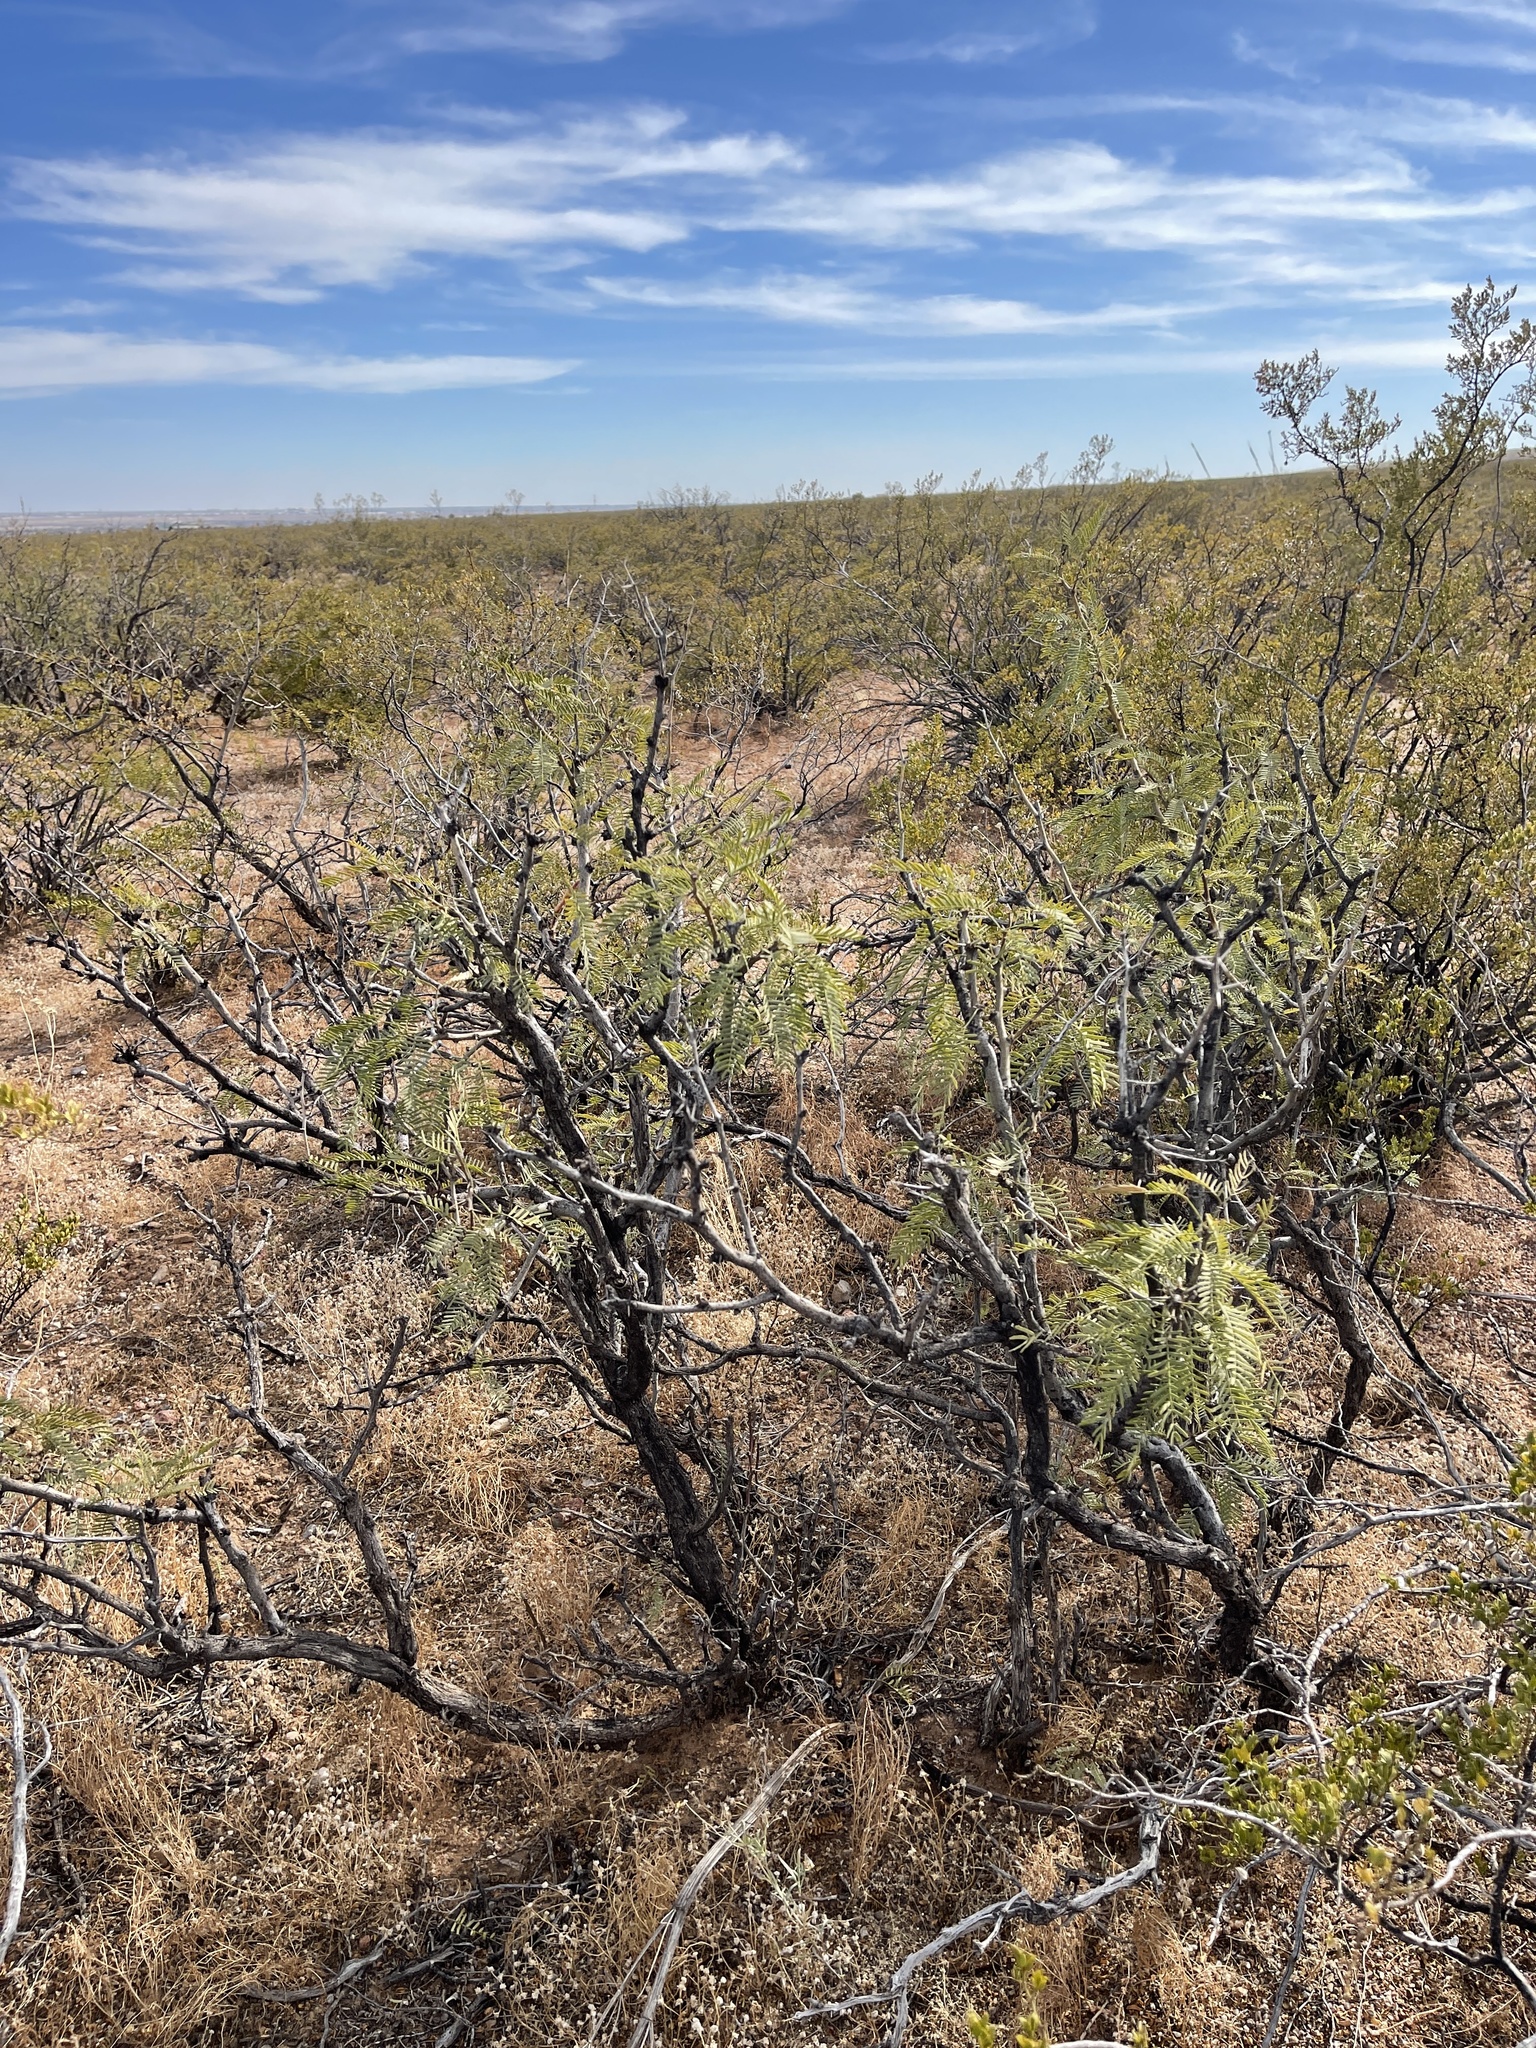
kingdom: Plantae
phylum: Tracheophyta
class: Magnoliopsida
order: Fabales
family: Fabaceae
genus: Prosopis
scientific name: Prosopis glandulosa
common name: Honey mesquite
